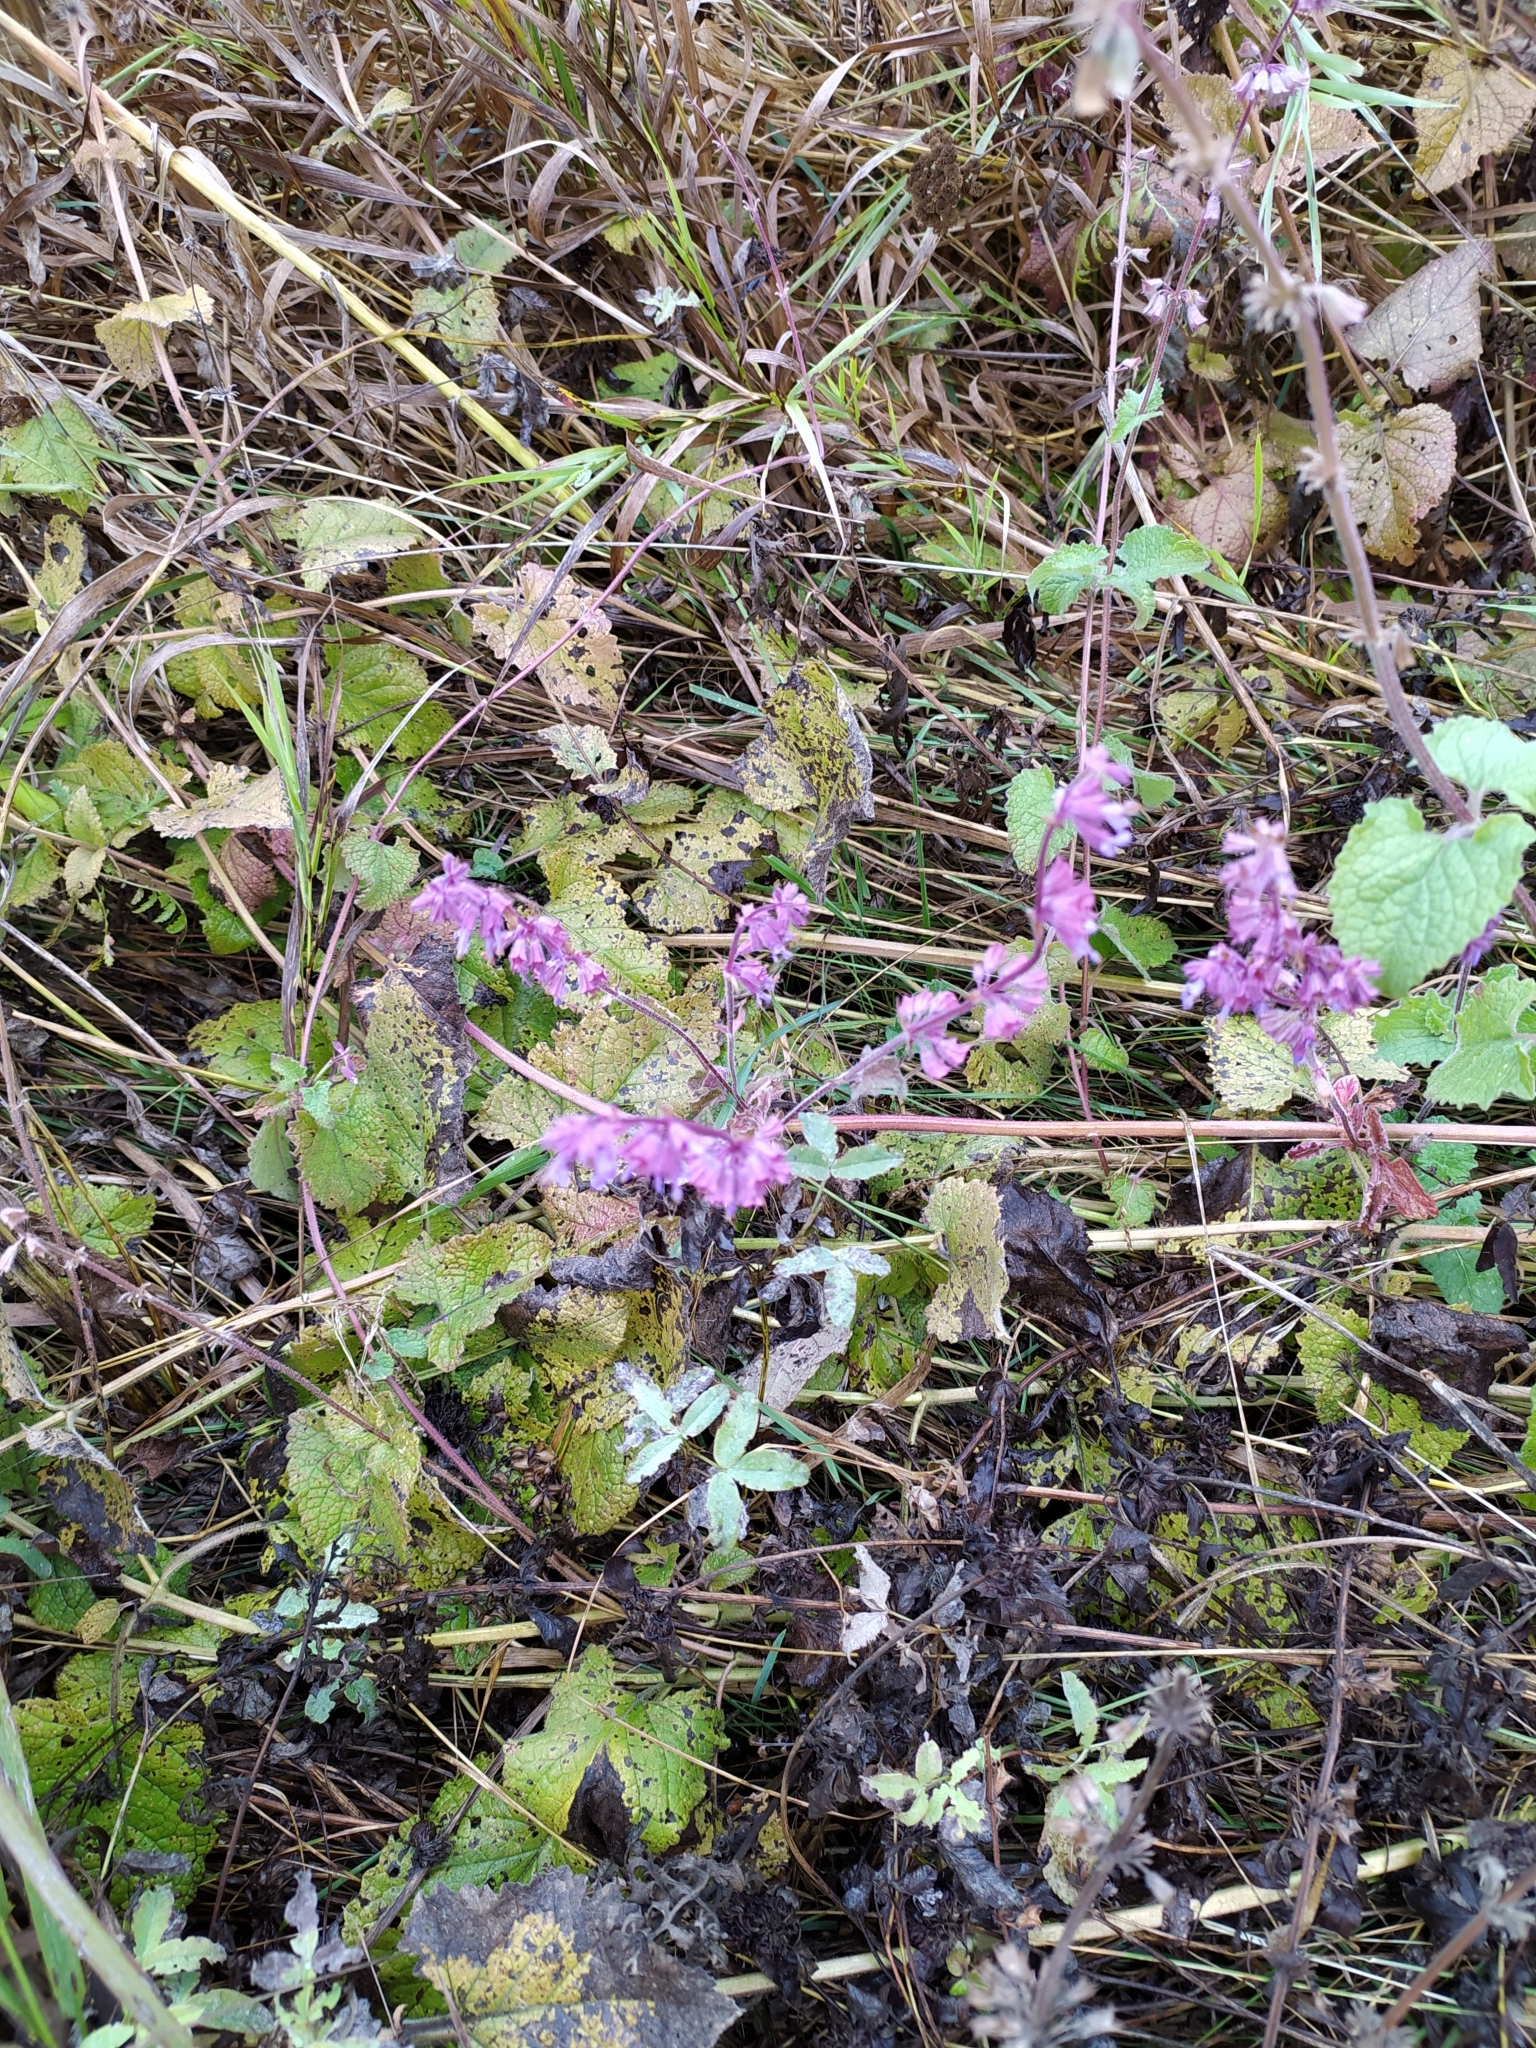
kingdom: Plantae
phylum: Tracheophyta
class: Magnoliopsida
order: Lamiales
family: Lamiaceae
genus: Salvia
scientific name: Salvia verticillata
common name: Whorled clary
